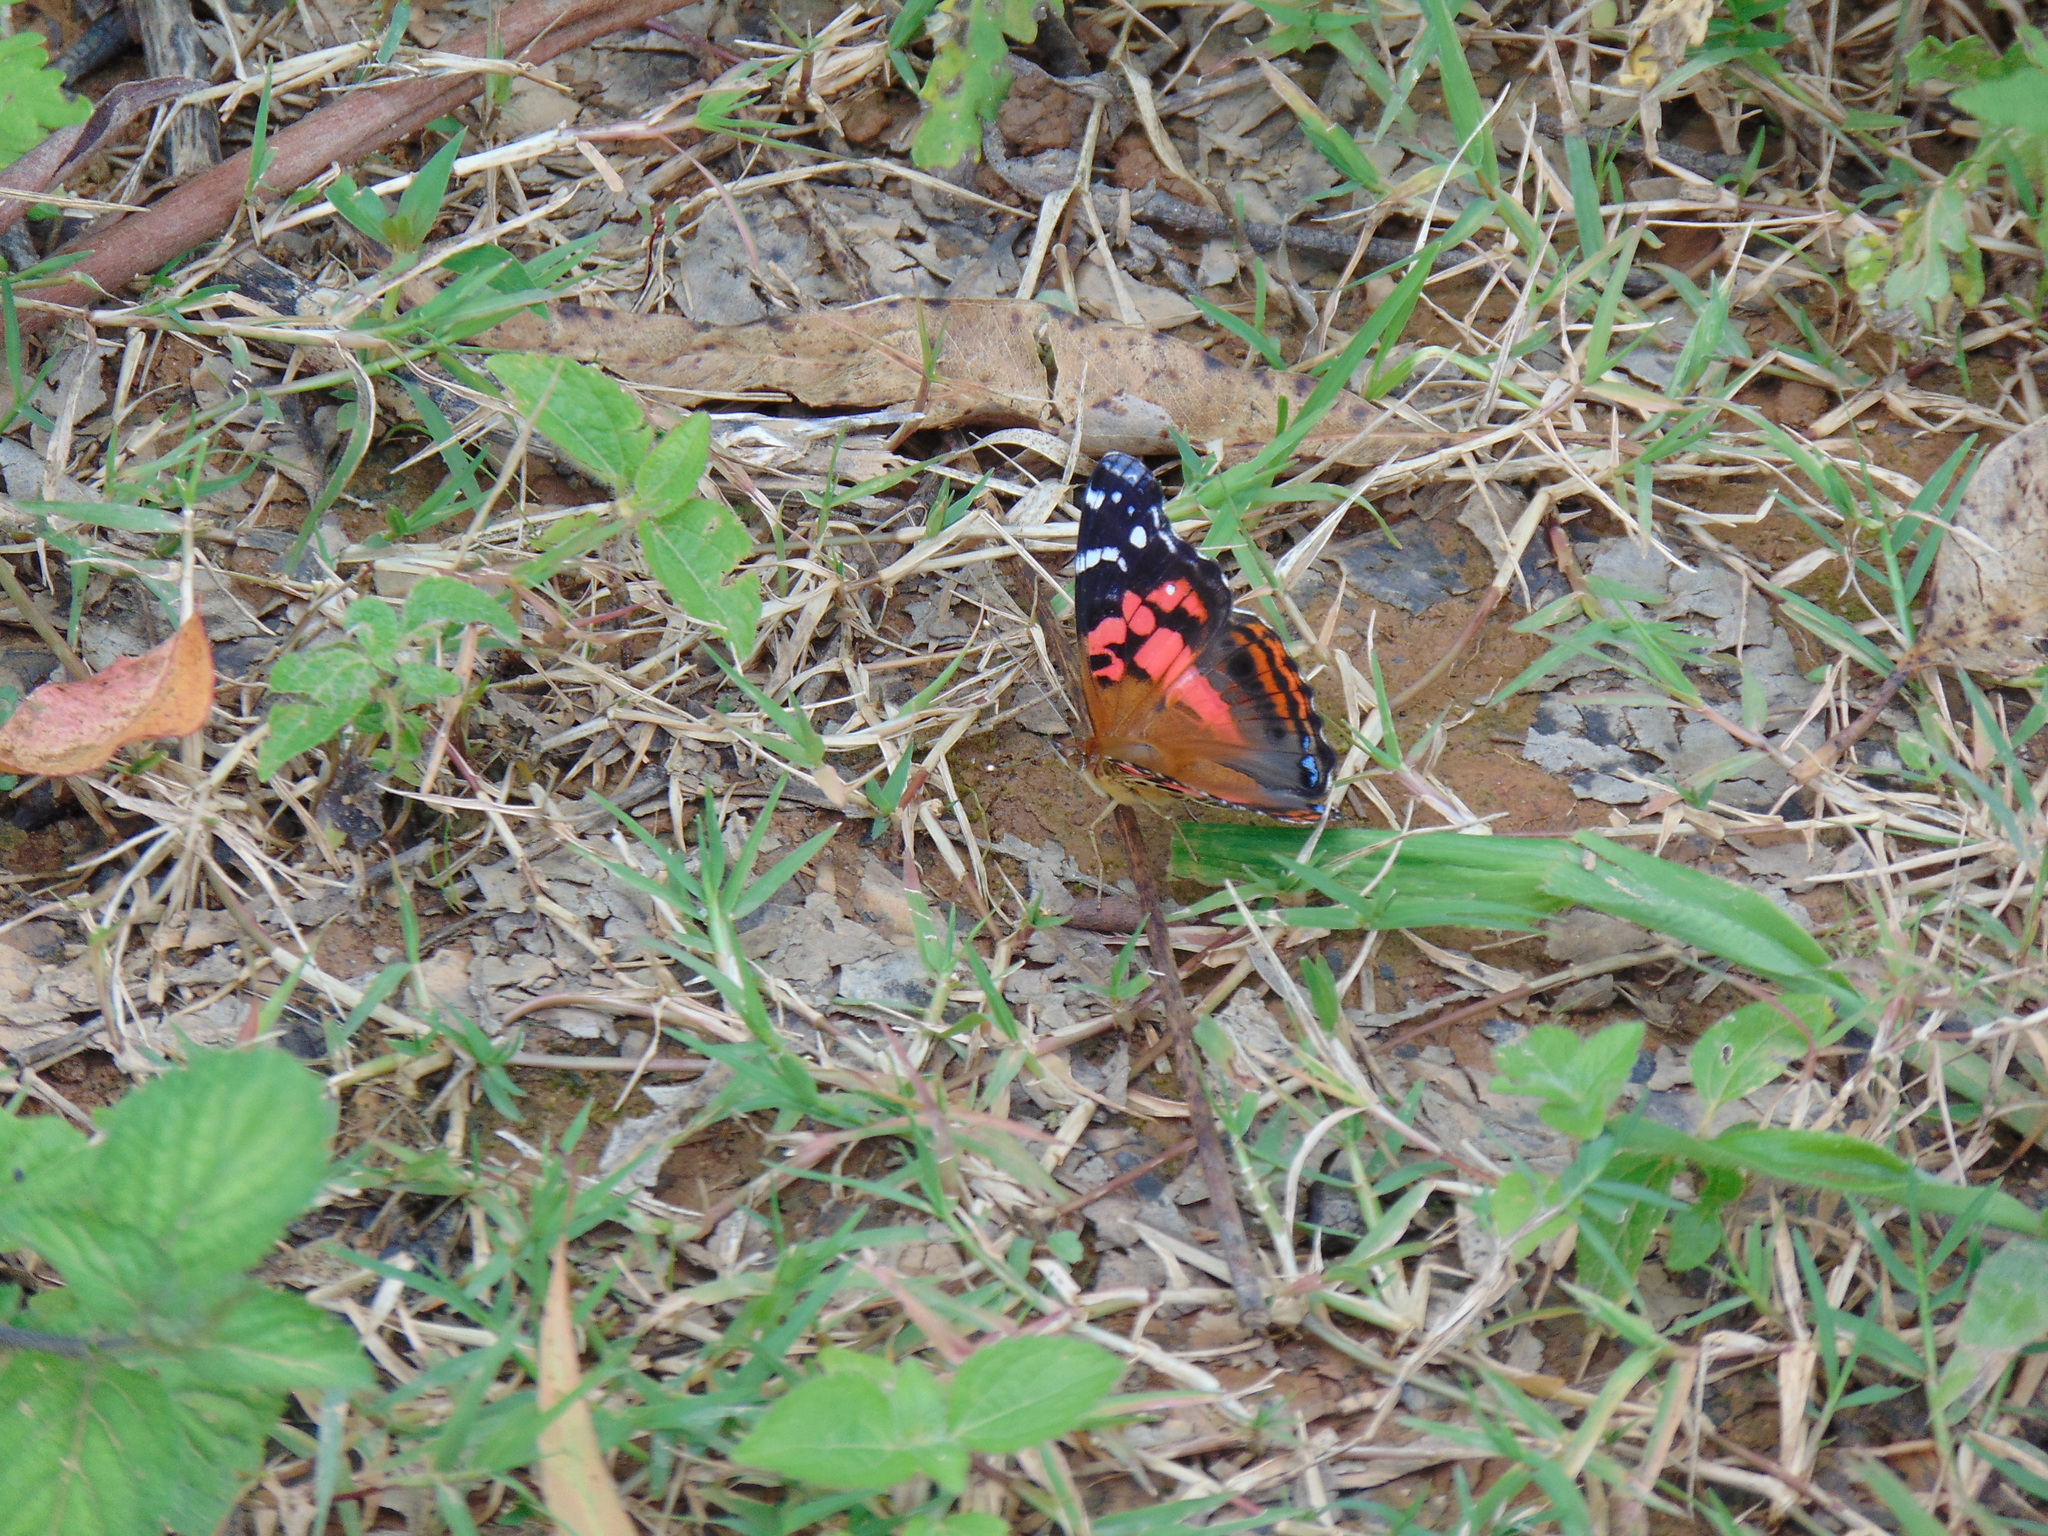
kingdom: Animalia
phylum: Arthropoda
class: Insecta
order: Lepidoptera
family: Nymphalidae
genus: Vanessa
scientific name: Vanessa myrinna
